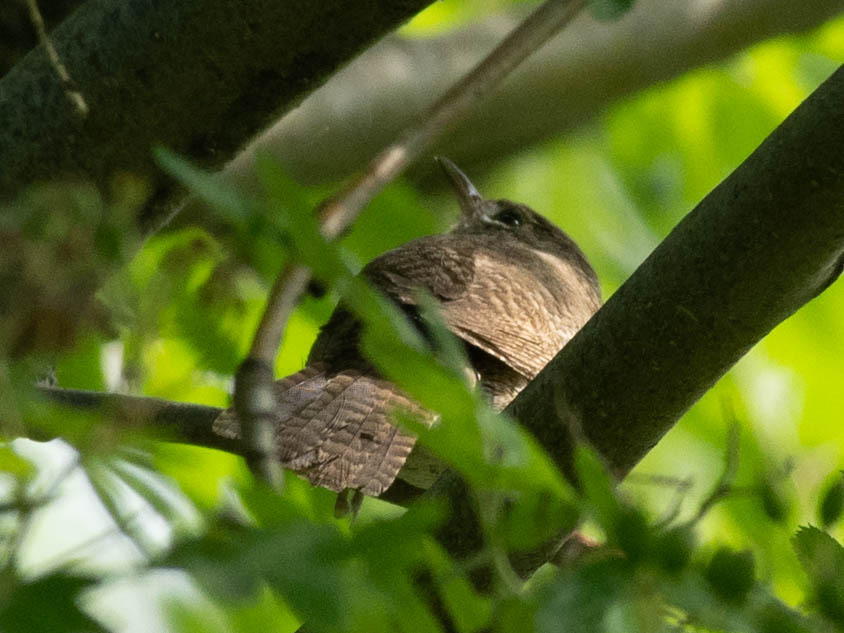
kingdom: Animalia
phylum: Chordata
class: Aves
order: Passeriformes
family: Troglodytidae
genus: Troglodytes
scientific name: Troglodytes aedon
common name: House wren
